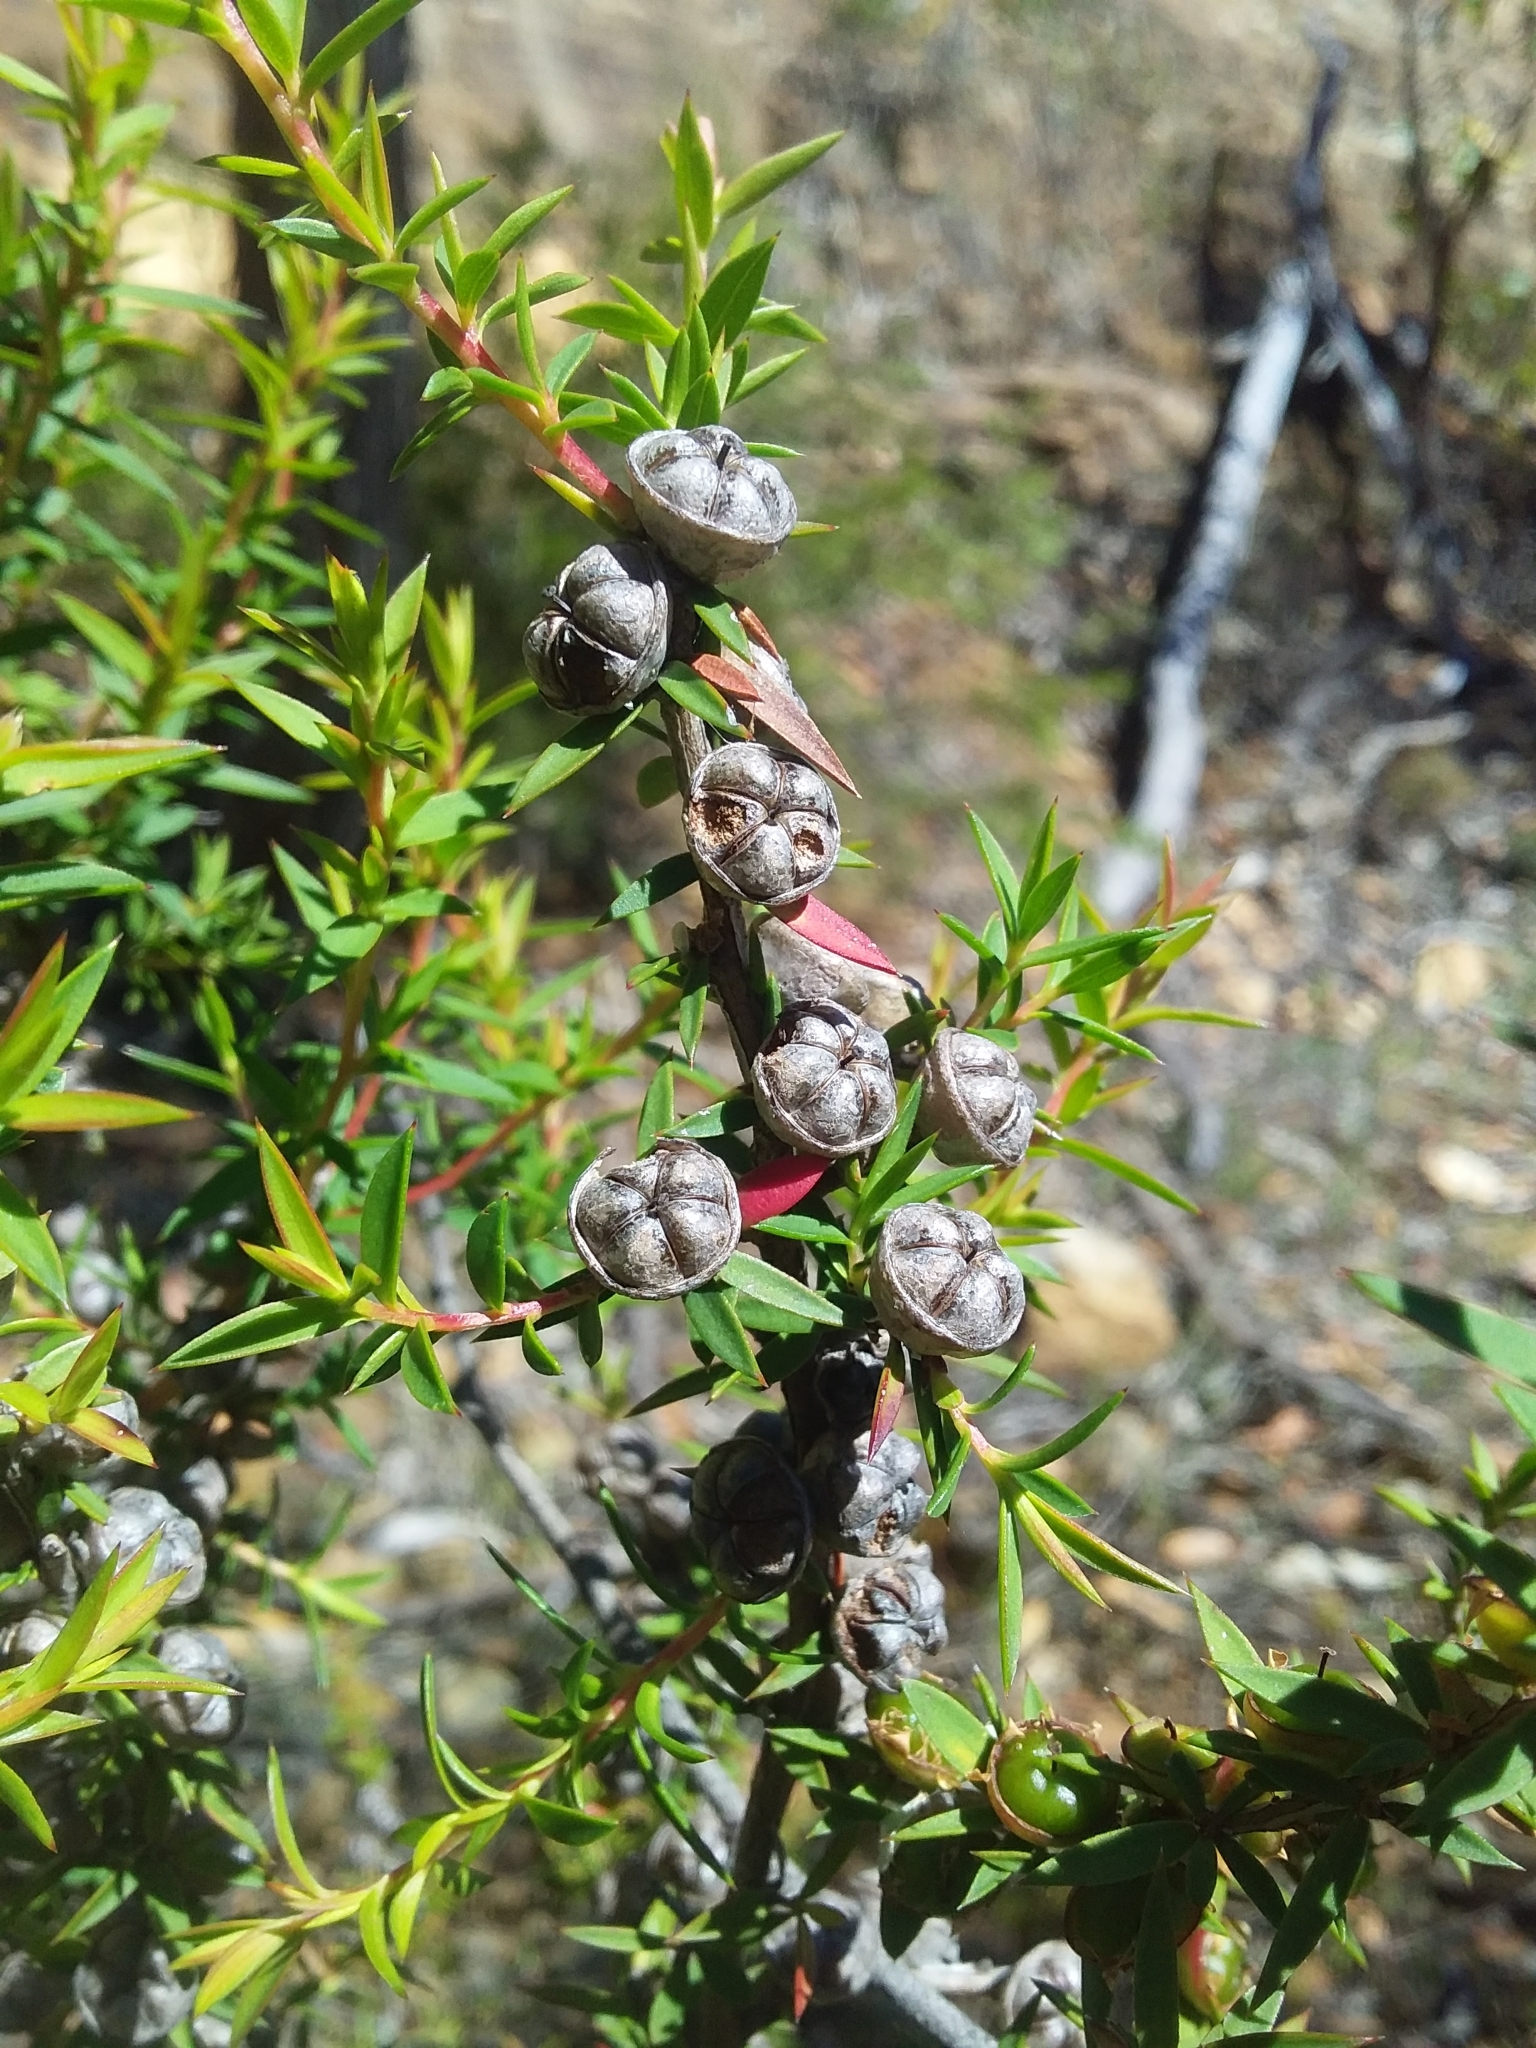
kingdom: Plantae
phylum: Tracheophyta
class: Magnoliopsida
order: Myrtales
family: Myrtaceae
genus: Leptospermum
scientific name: Leptospermum continentale
